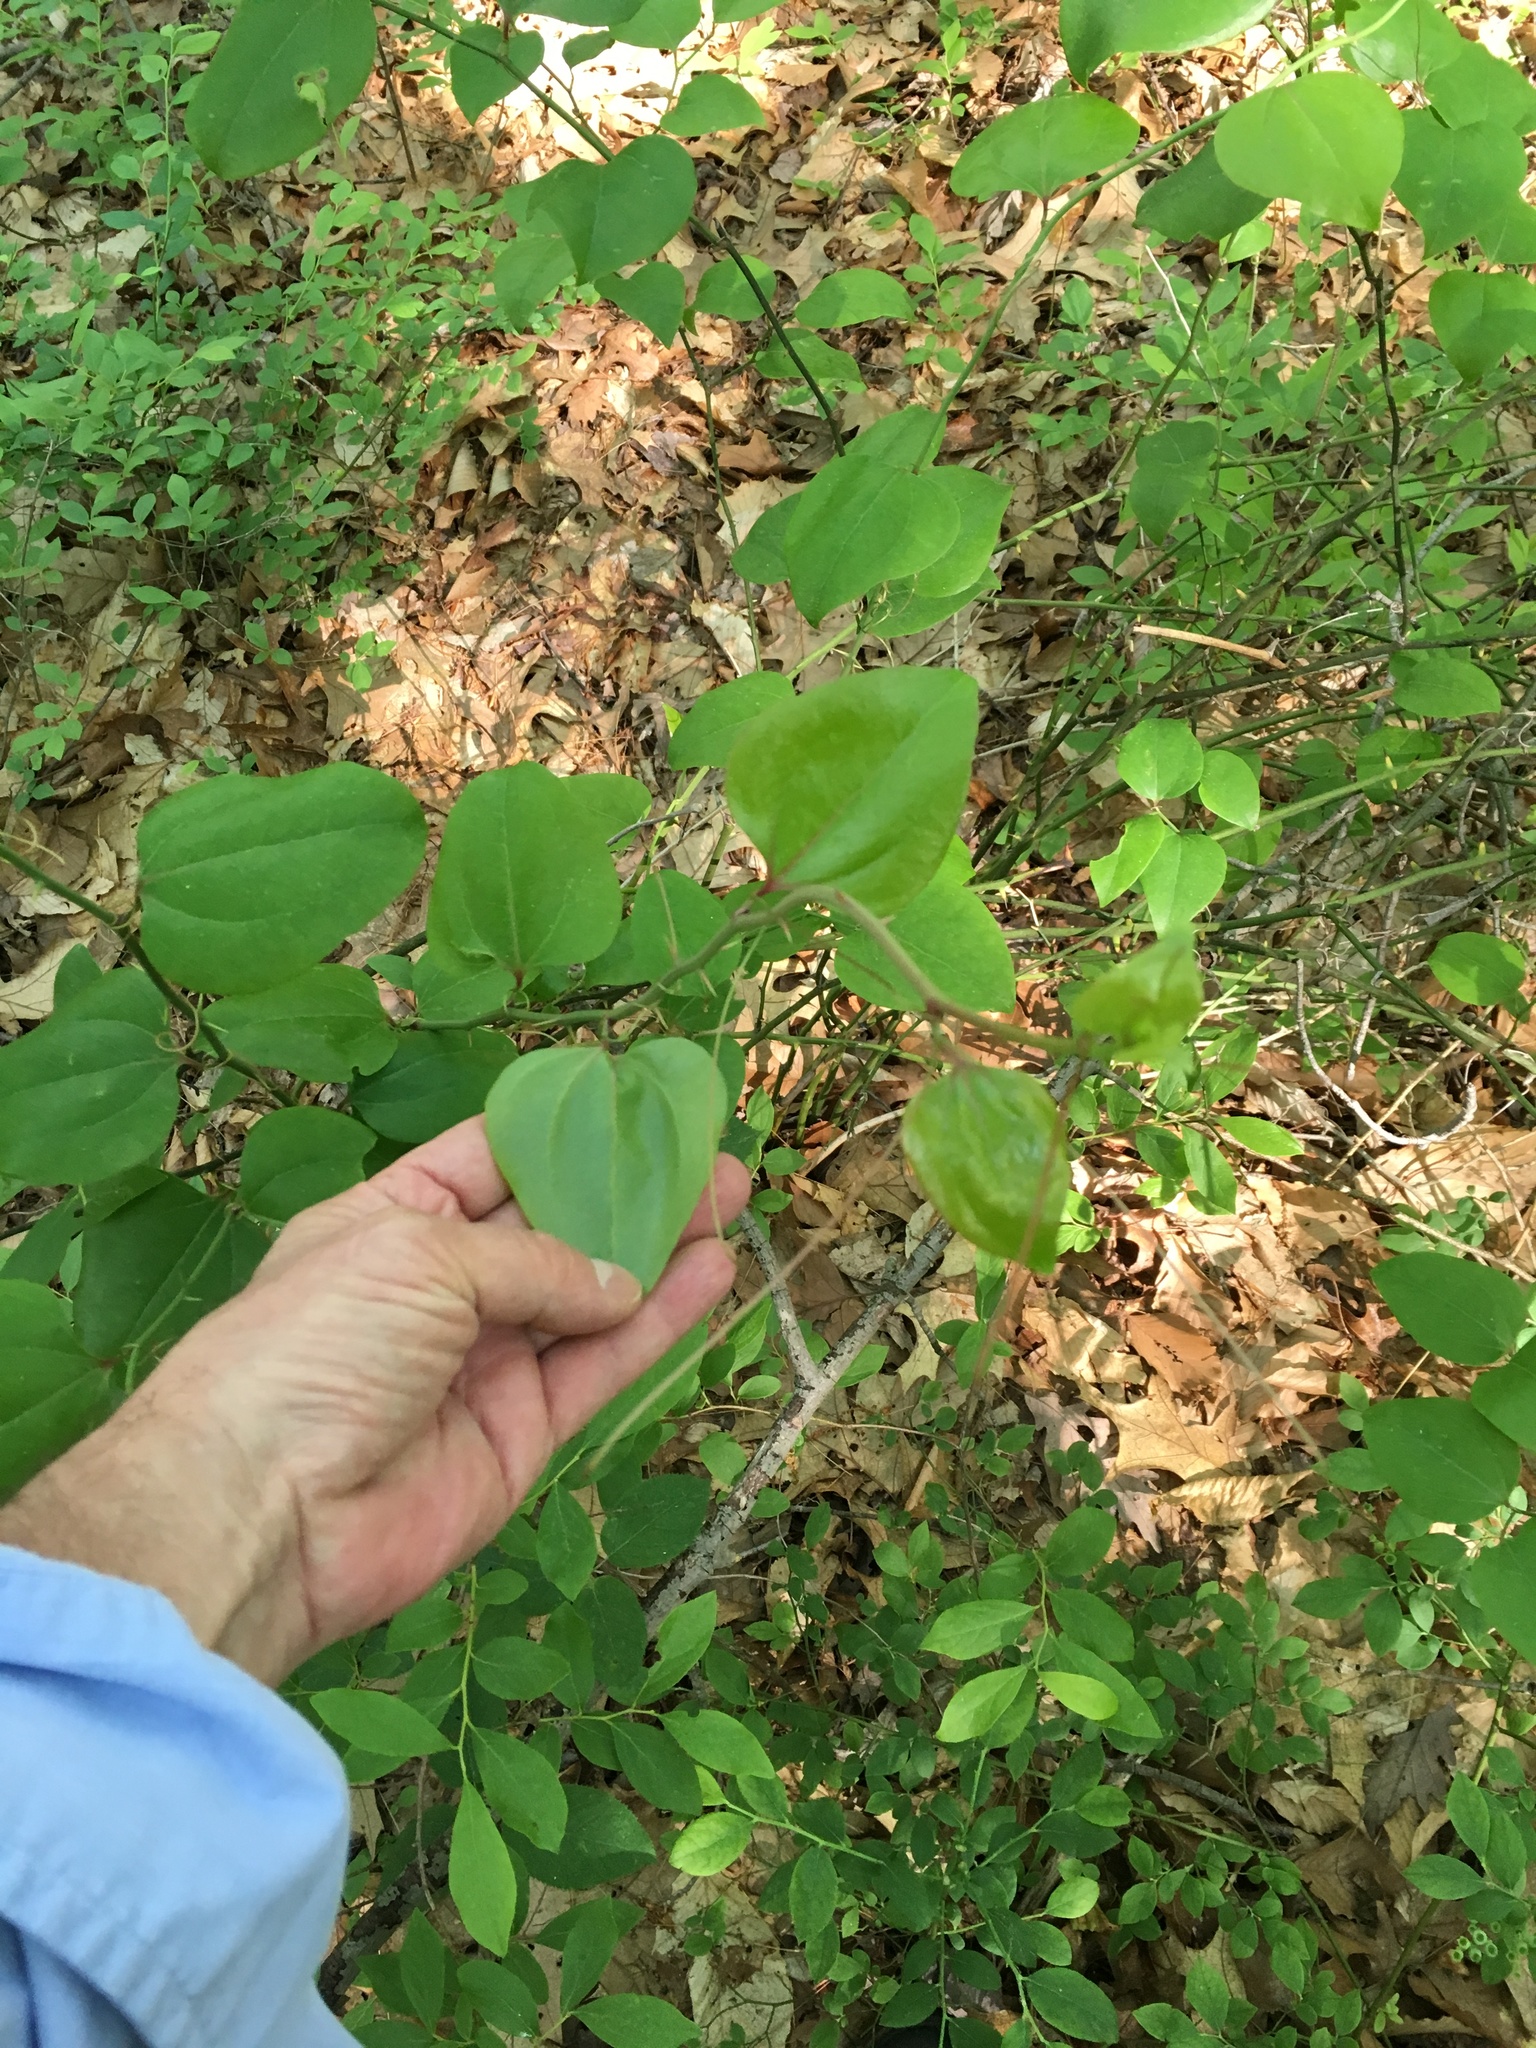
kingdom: Plantae
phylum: Tracheophyta
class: Liliopsida
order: Liliales
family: Smilacaceae
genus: Smilax
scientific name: Smilax rotundifolia
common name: Bullbriar
